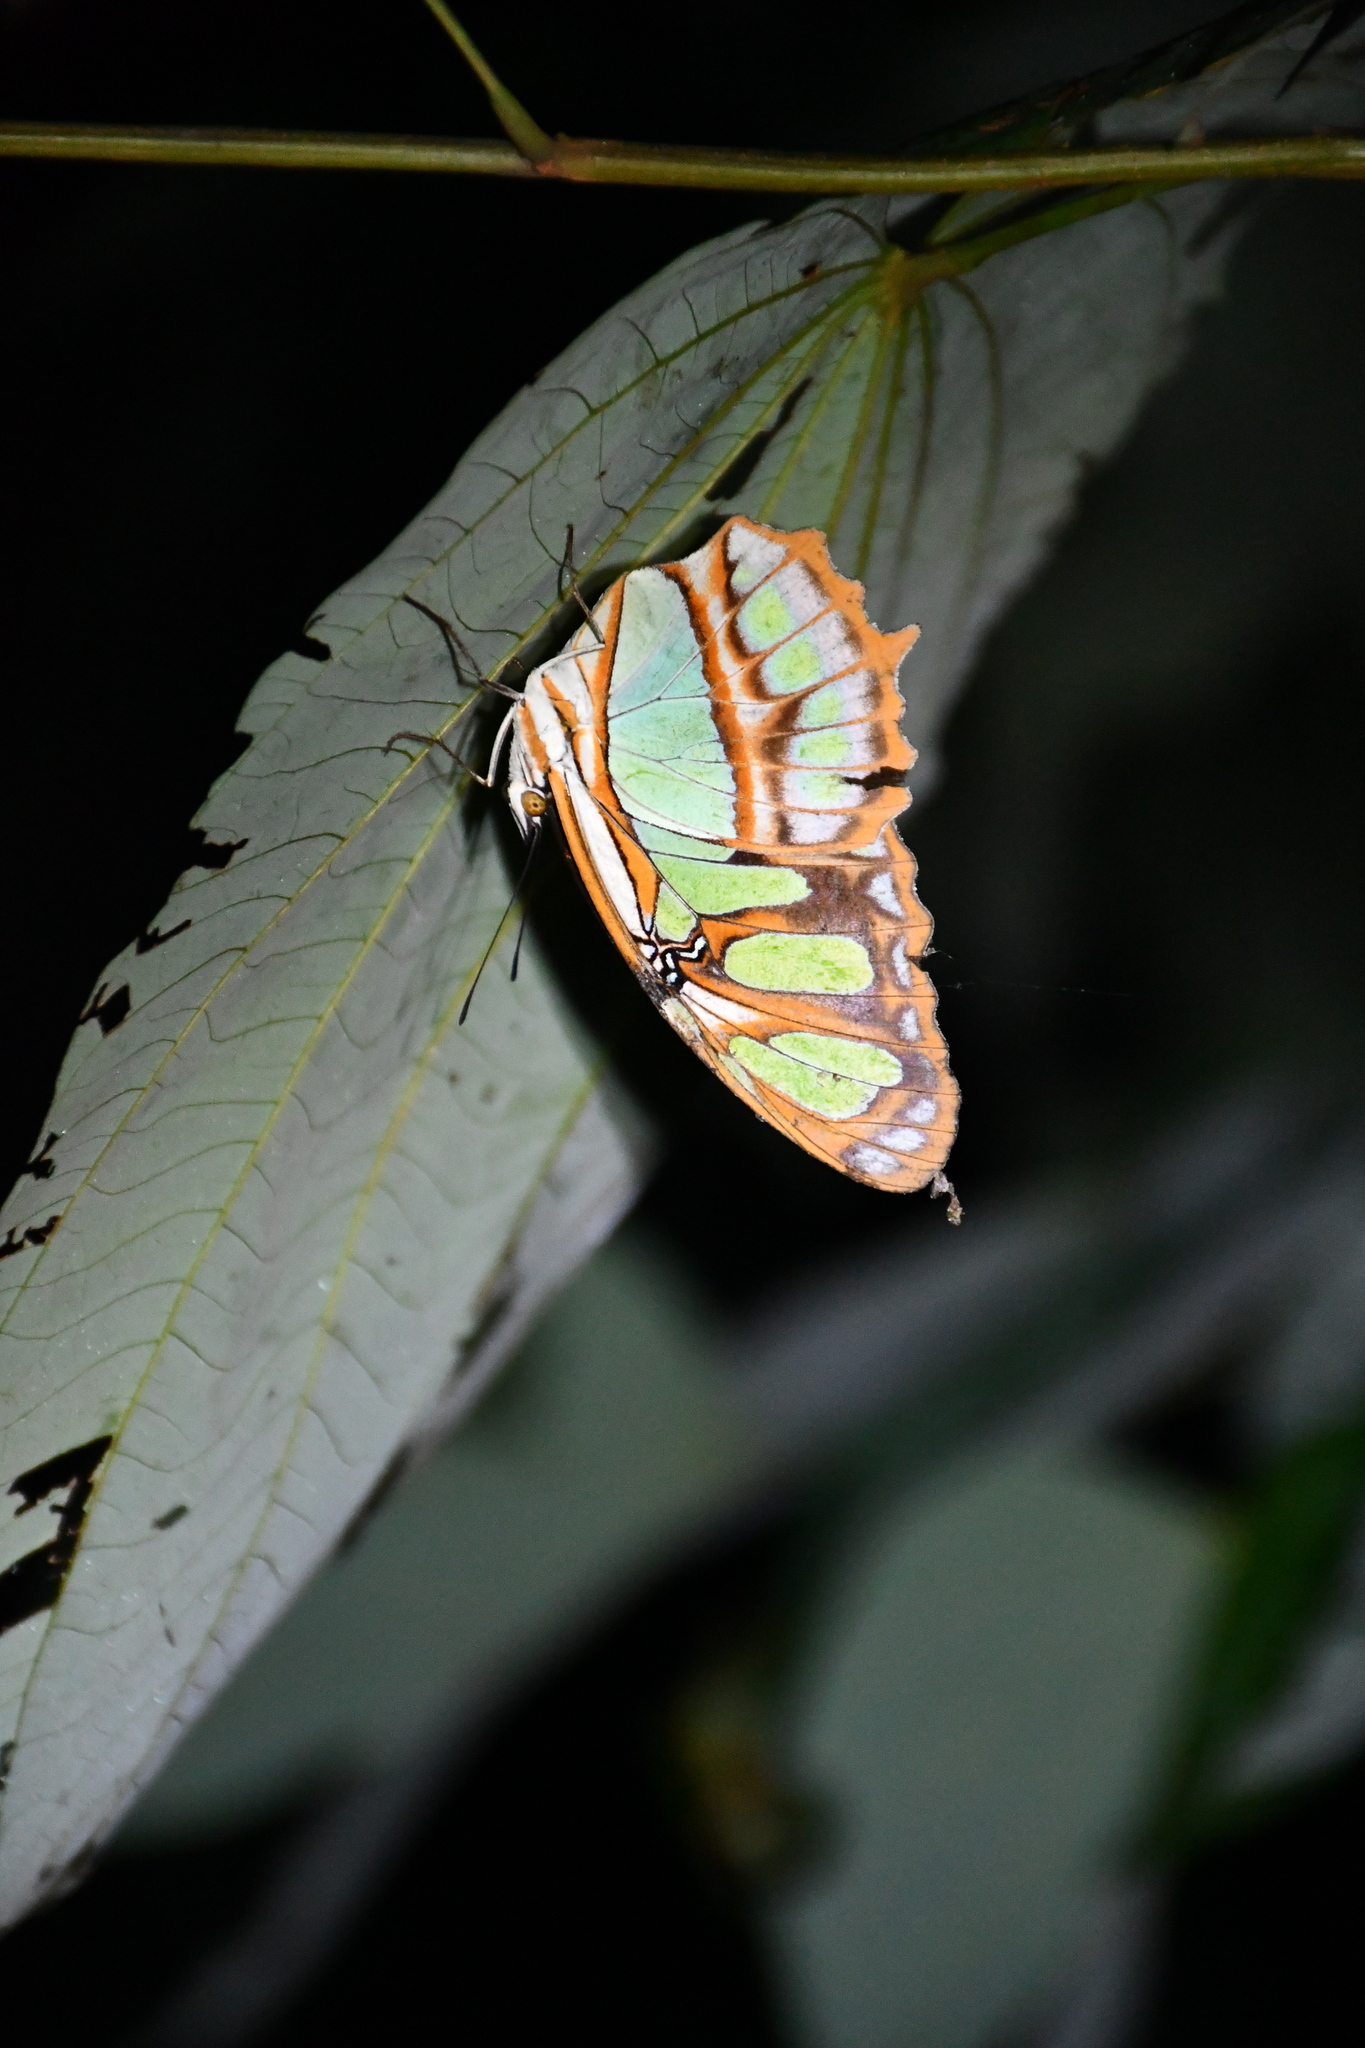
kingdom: Animalia
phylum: Arthropoda
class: Insecta
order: Lepidoptera
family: Nymphalidae
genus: Siproeta
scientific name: Siproeta stelenes
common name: Malachite
